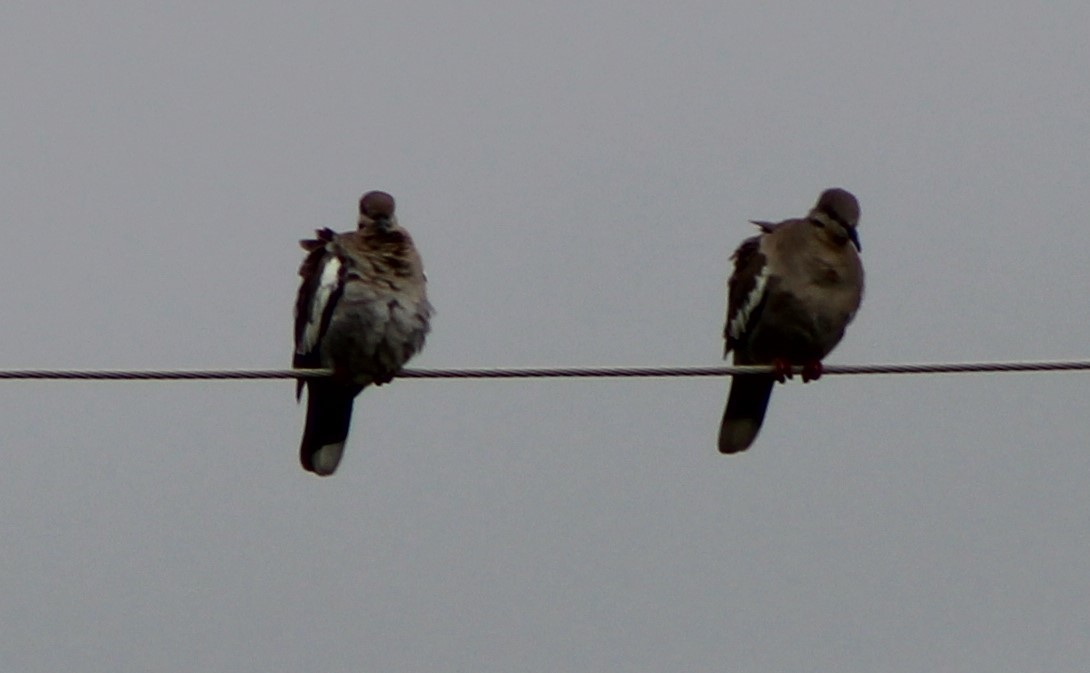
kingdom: Animalia
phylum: Chordata
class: Aves
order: Columbiformes
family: Columbidae
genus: Zenaida
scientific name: Zenaida asiatica
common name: White-winged dove
